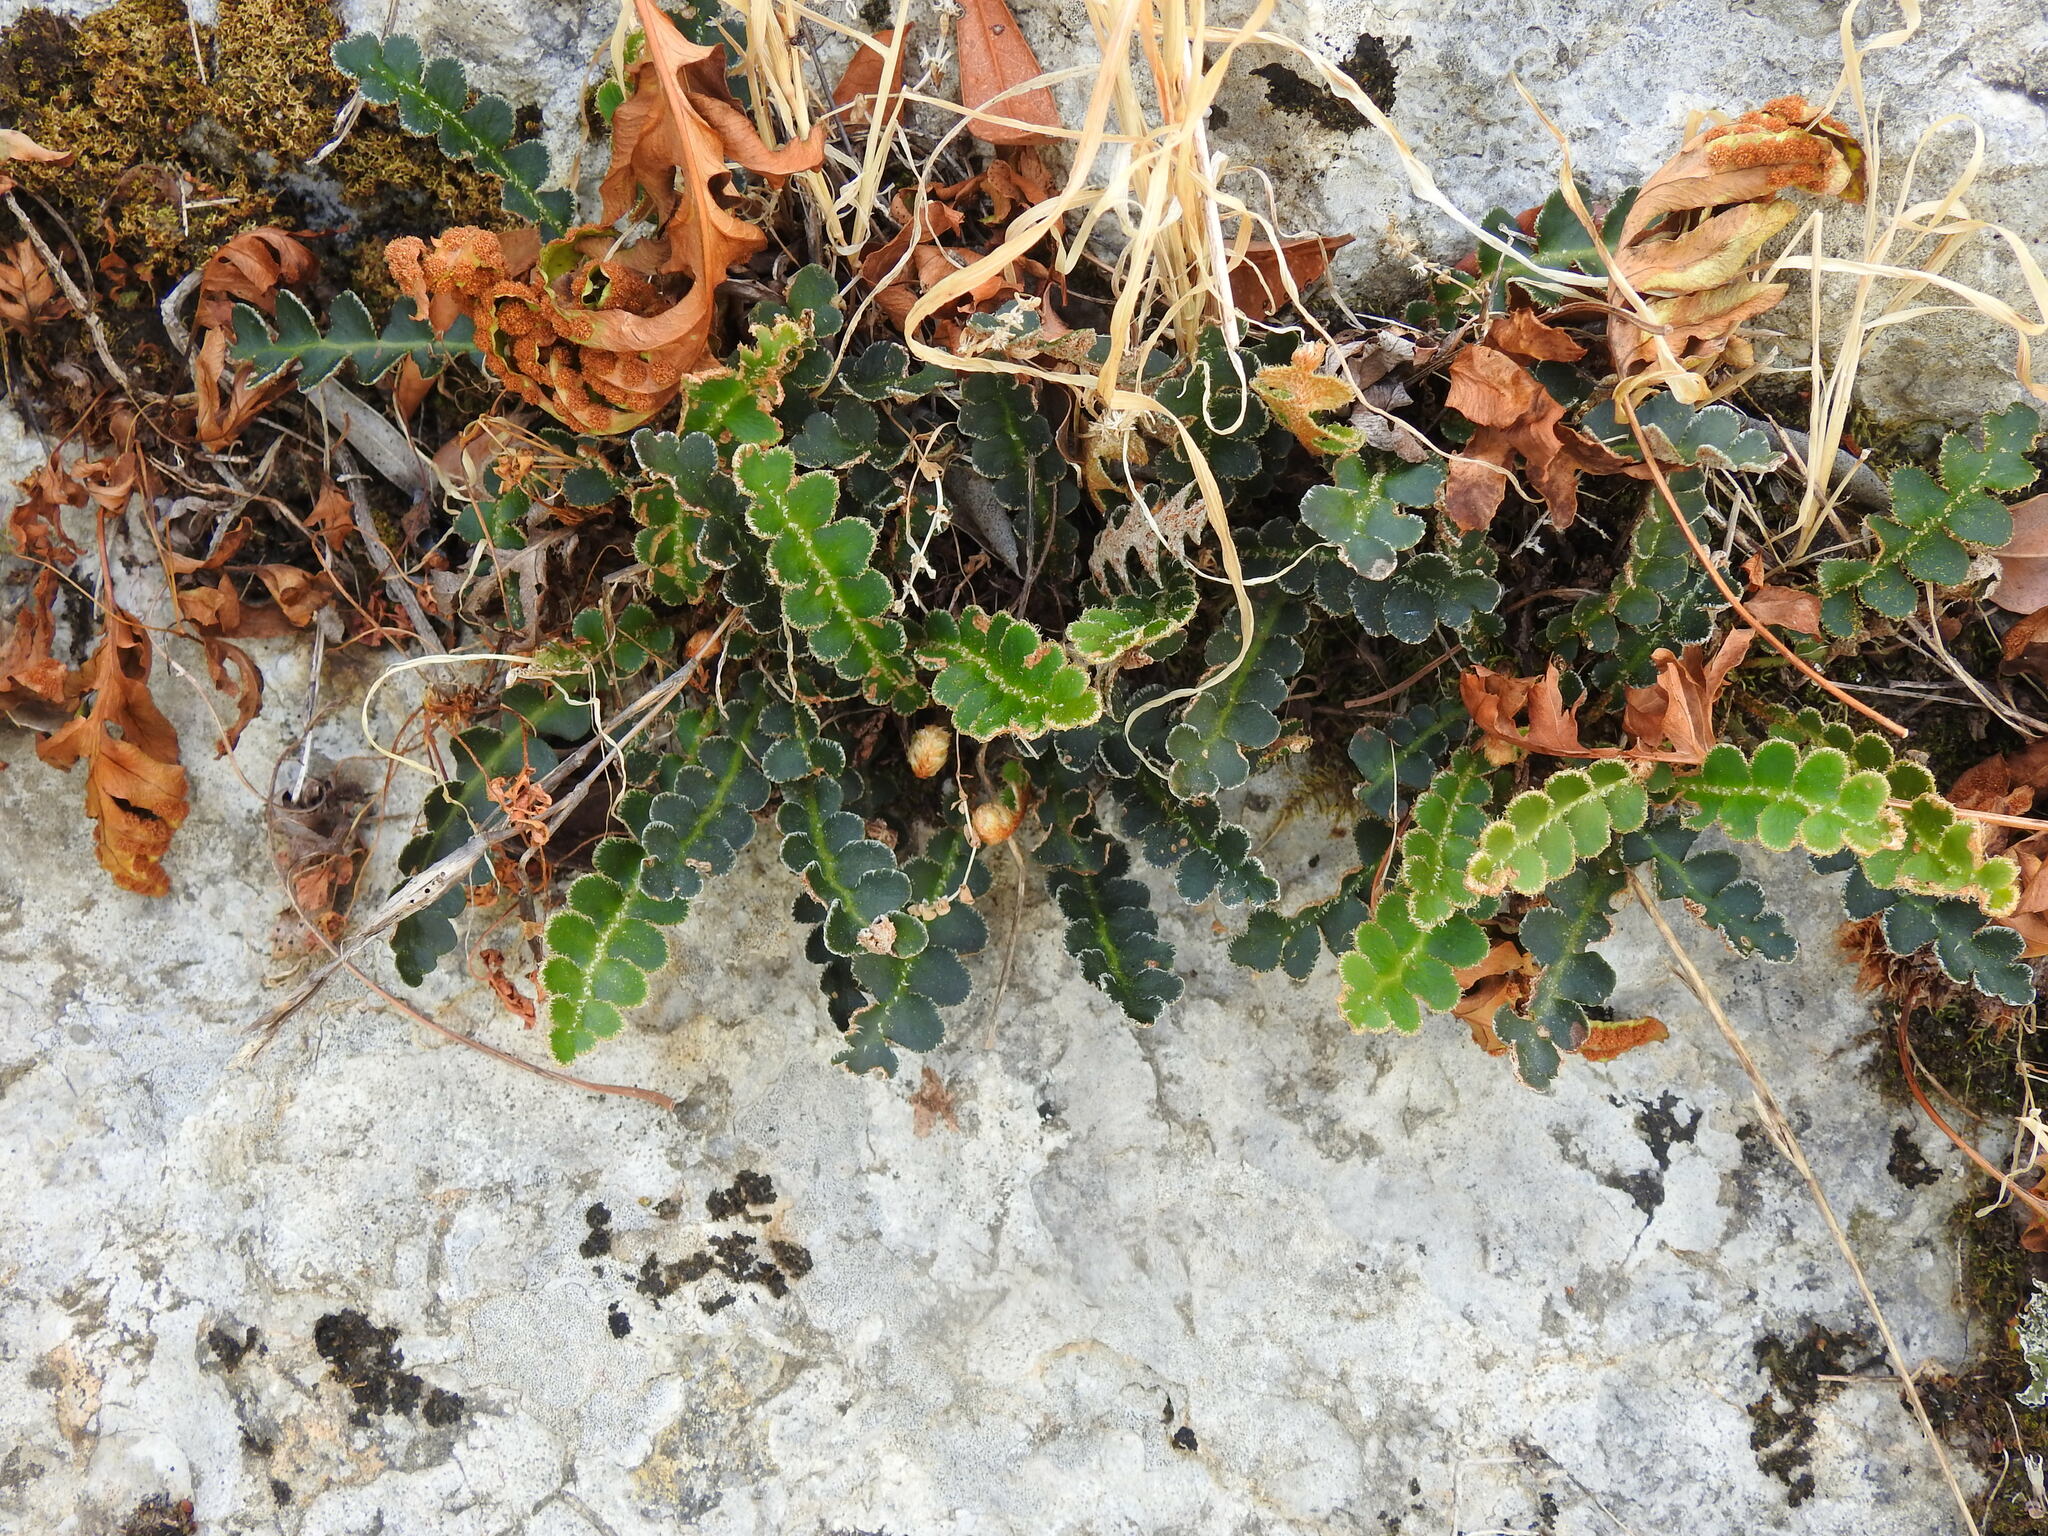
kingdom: Plantae
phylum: Tracheophyta
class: Polypodiopsida
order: Polypodiales
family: Aspleniaceae
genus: Asplenium
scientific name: Asplenium ceterach
